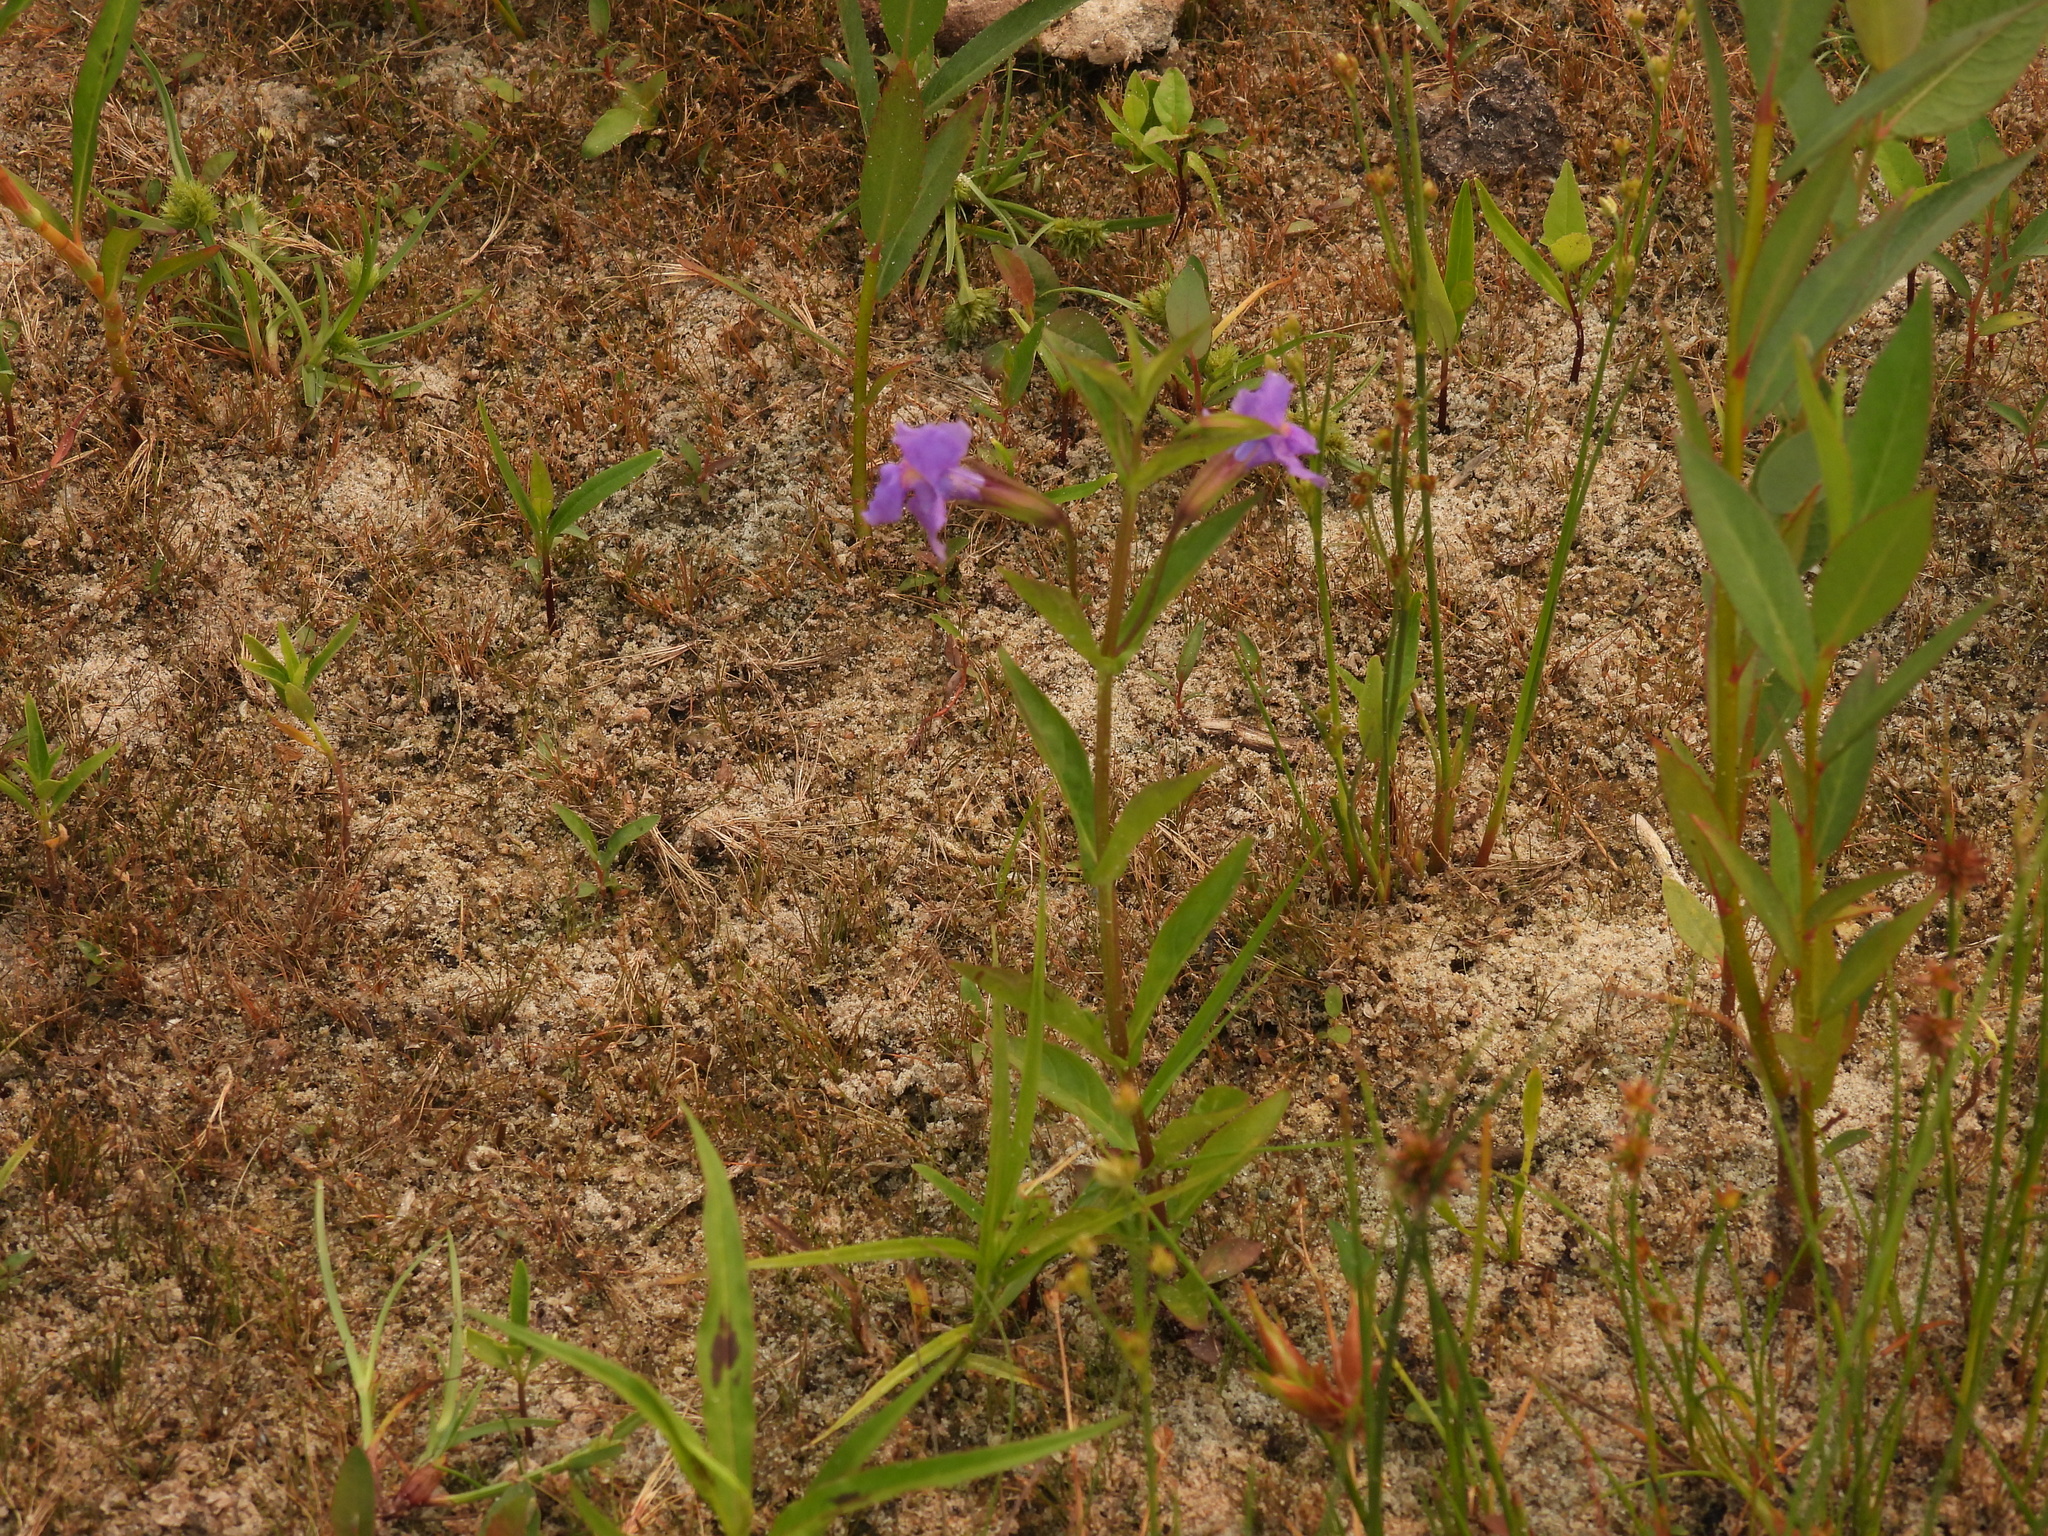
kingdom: Plantae
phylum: Tracheophyta
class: Magnoliopsida
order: Lamiales
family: Phrymaceae
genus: Mimulus
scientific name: Mimulus ringens
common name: Allegheny monkeyflower
